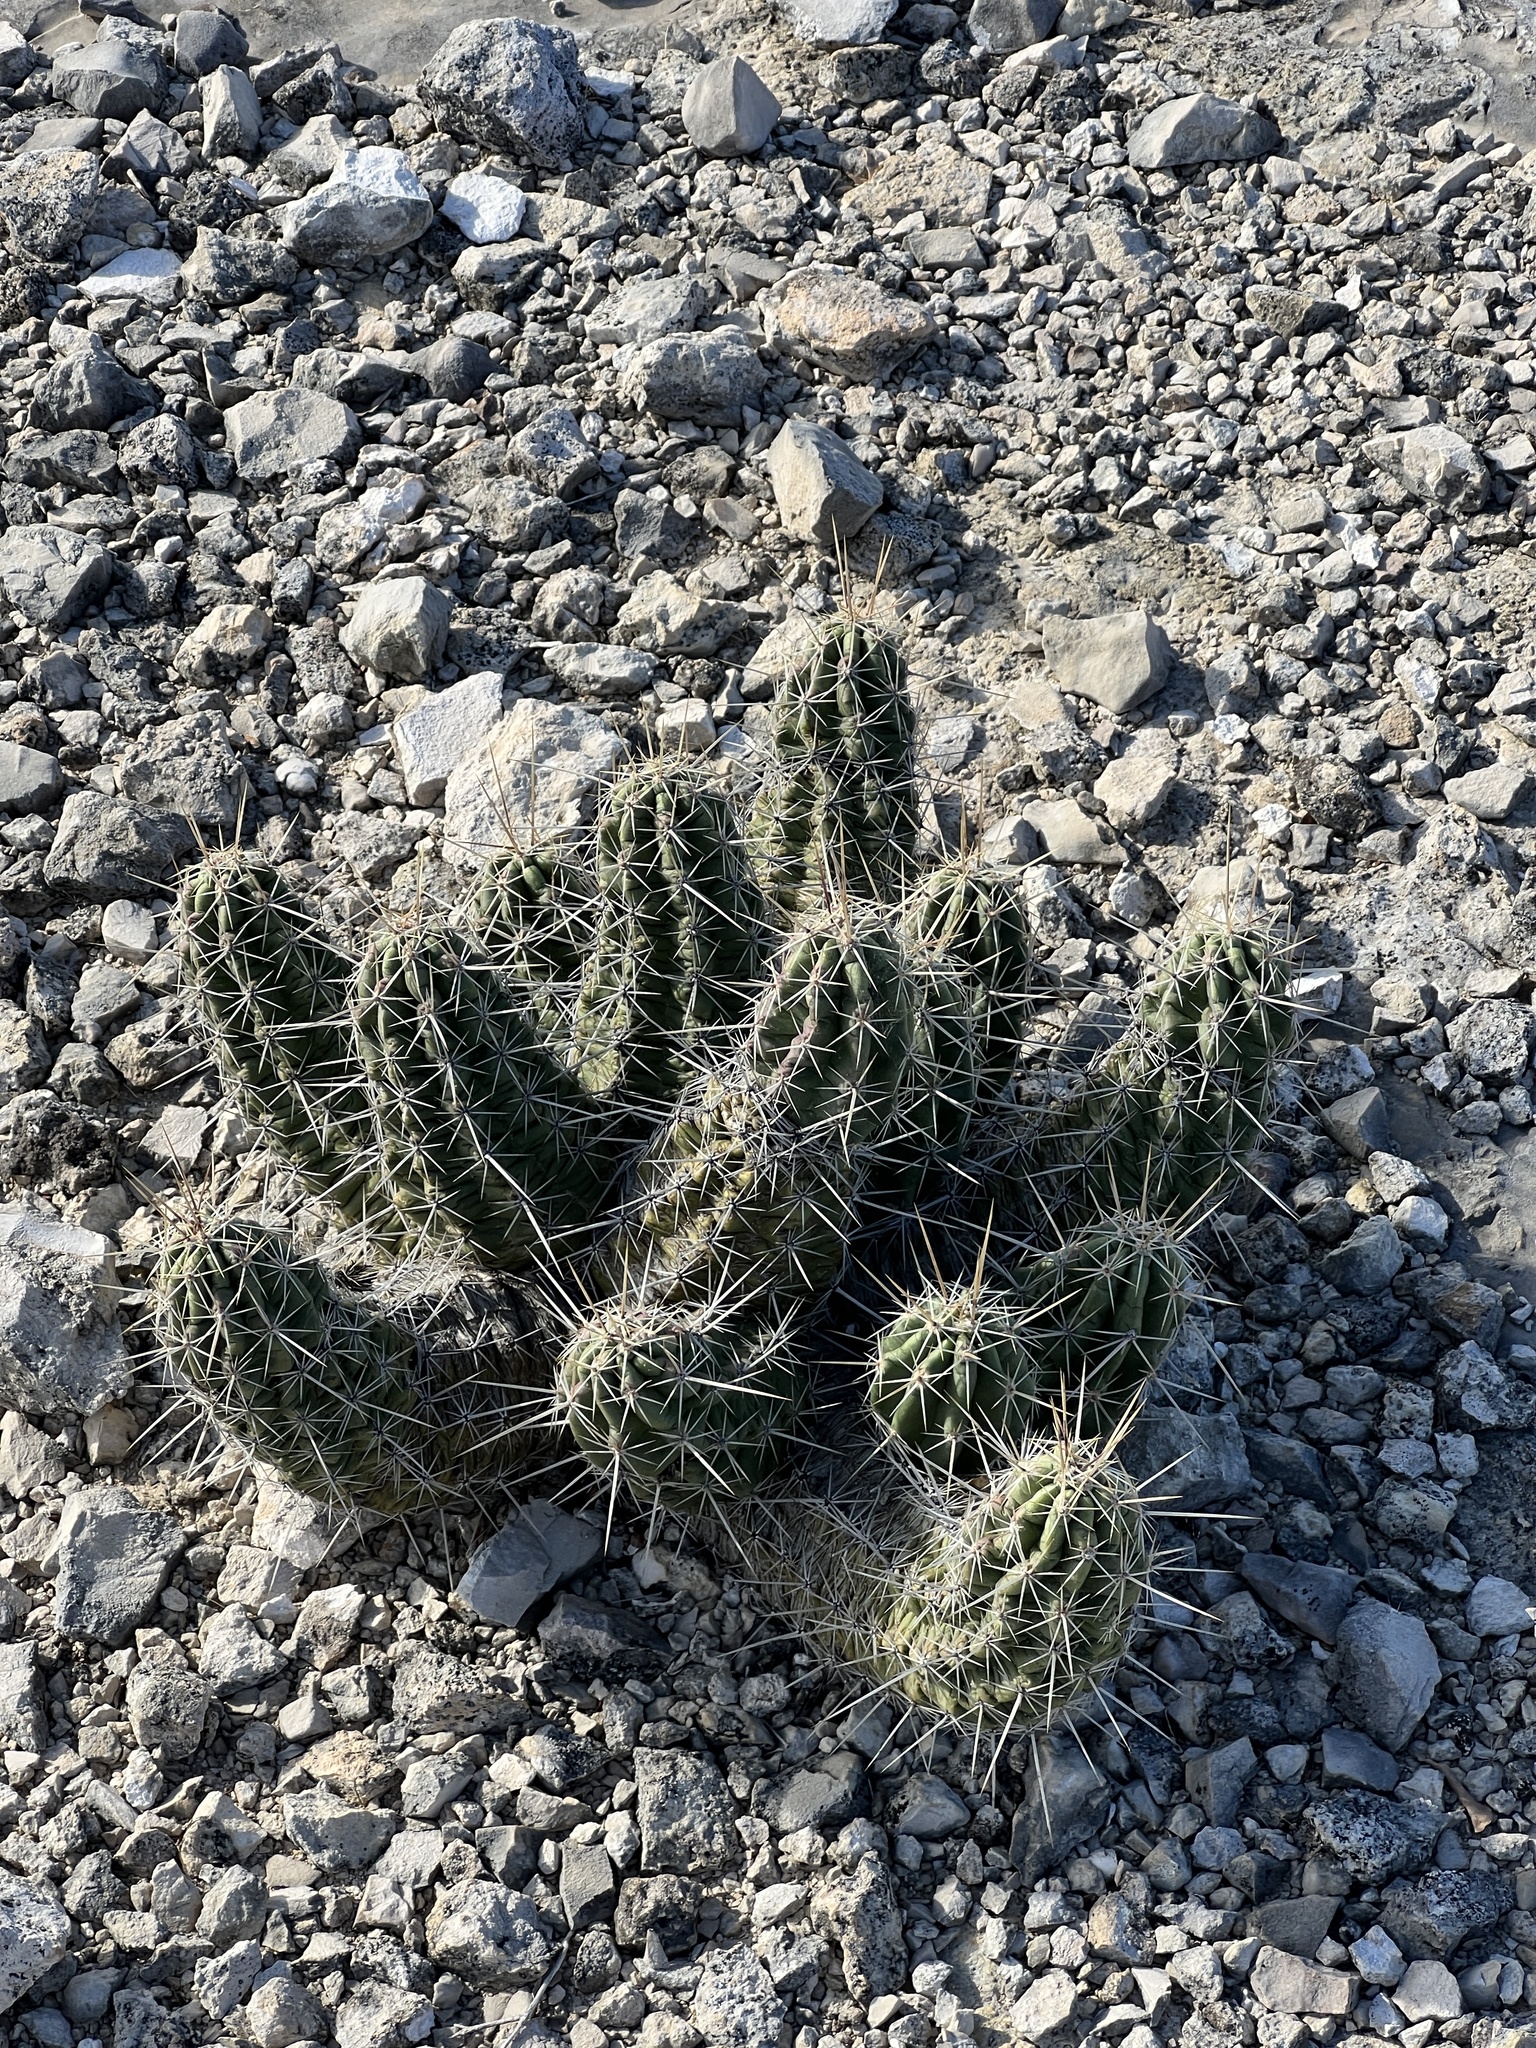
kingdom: Plantae
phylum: Tracheophyta
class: Magnoliopsida
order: Caryophyllales
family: Cactaceae
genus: Echinocereus
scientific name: Echinocereus enneacanthus
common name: Pitaya
